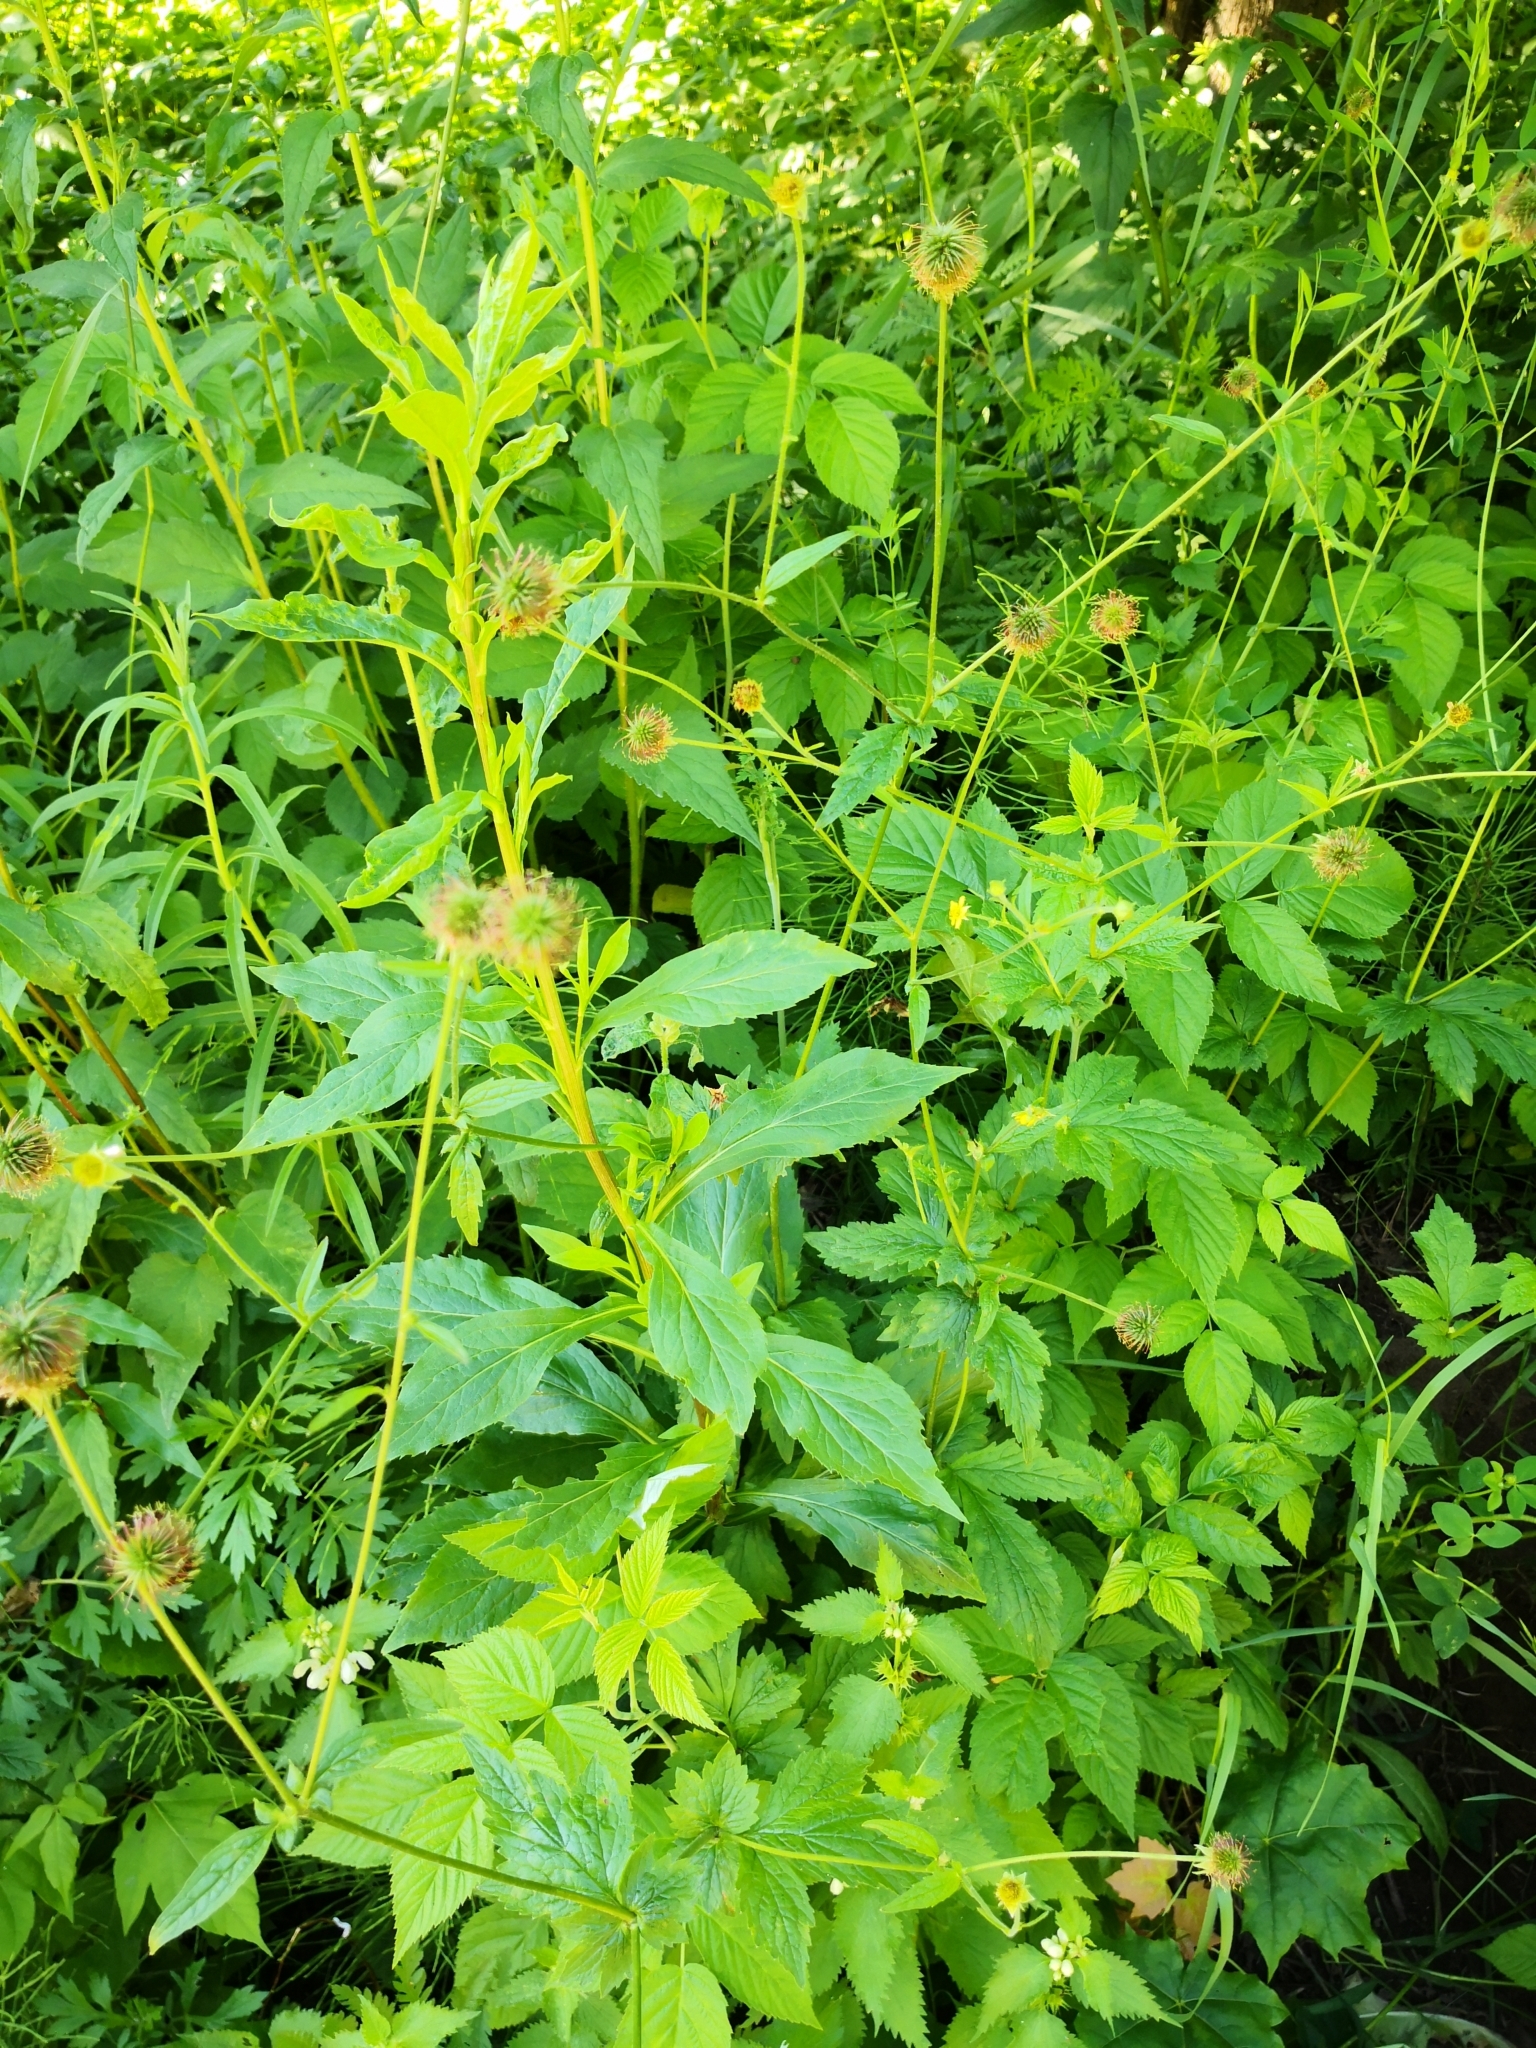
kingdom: Plantae
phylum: Tracheophyta
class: Magnoliopsida
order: Rosales
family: Rosaceae
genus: Geum
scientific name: Geum urbanum
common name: Wood avens
